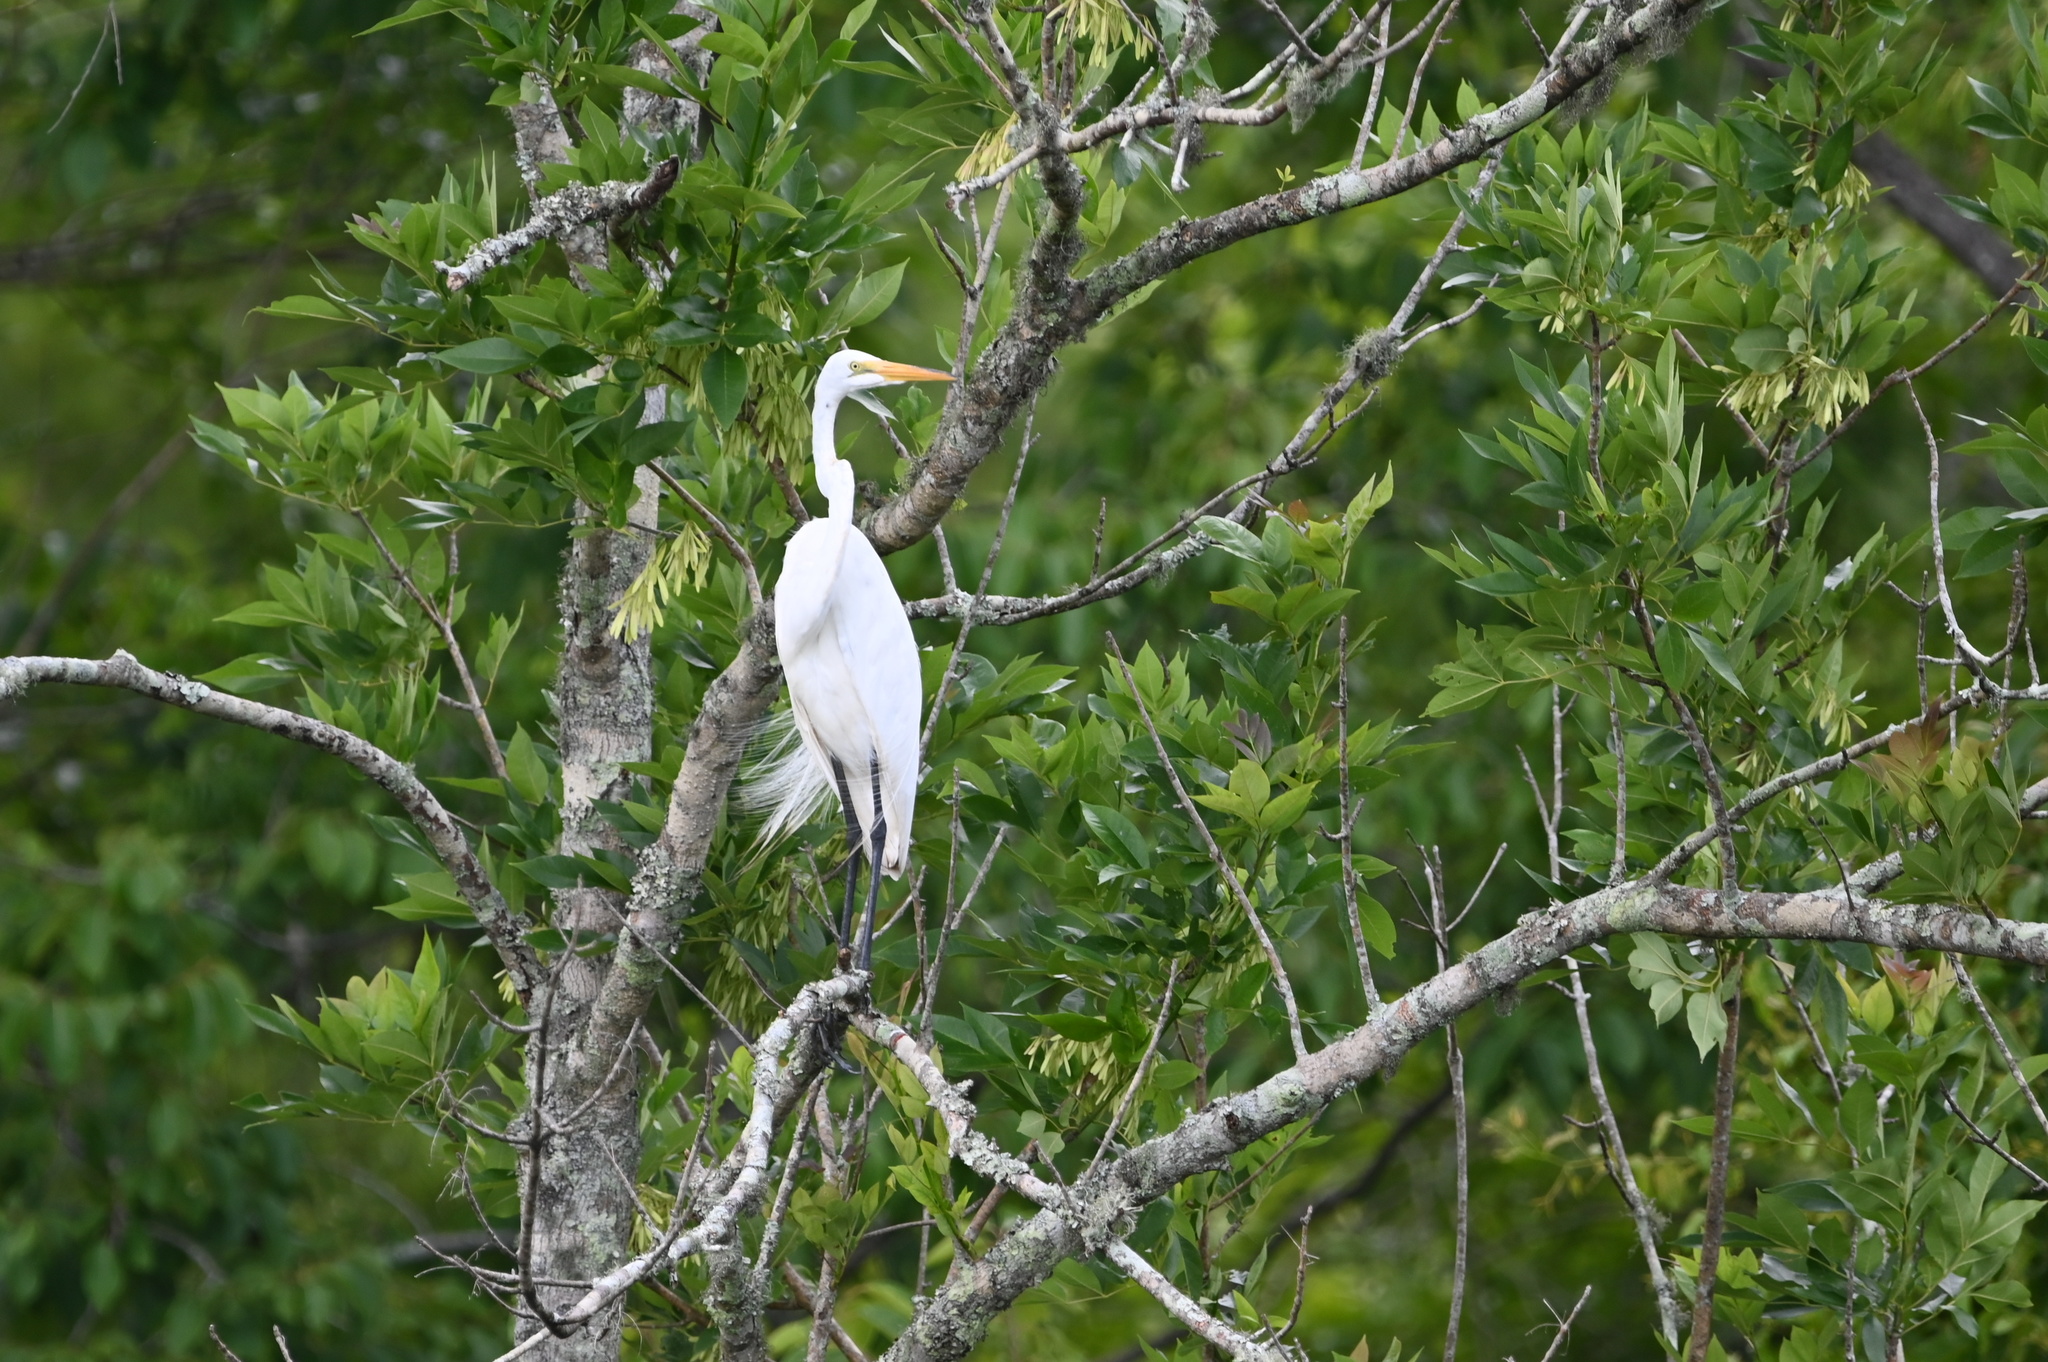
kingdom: Animalia
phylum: Chordata
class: Aves
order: Pelecaniformes
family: Ardeidae
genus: Ardea
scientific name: Ardea alba
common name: Great egret
